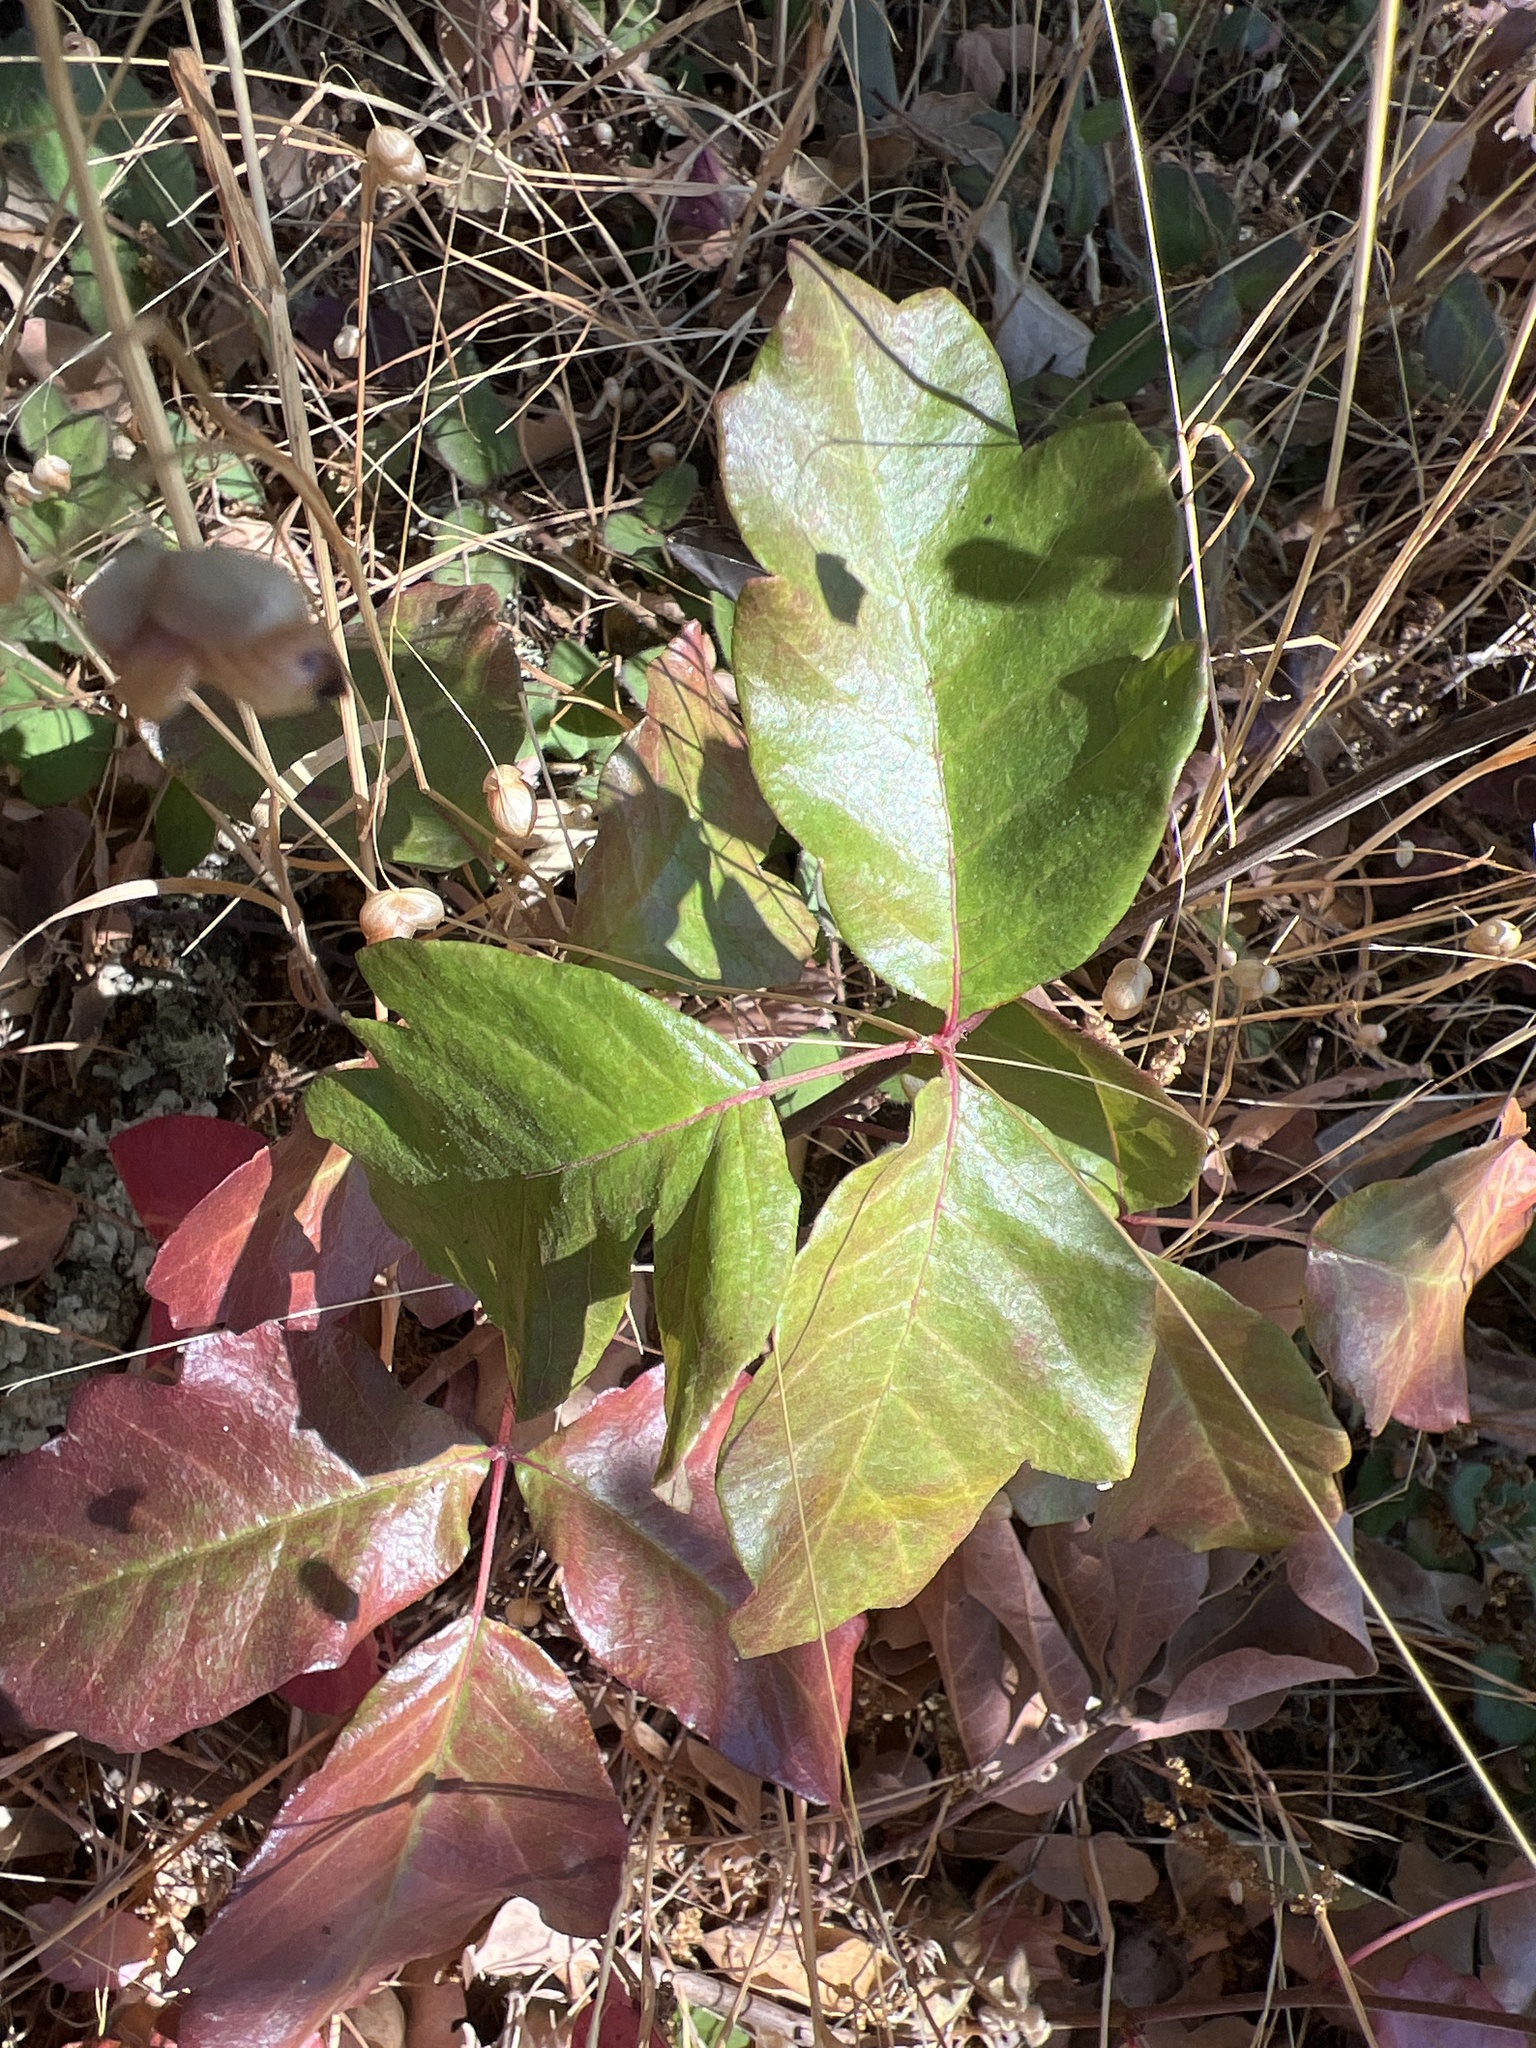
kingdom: Plantae
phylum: Tracheophyta
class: Magnoliopsida
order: Sapindales
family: Anacardiaceae
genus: Toxicodendron
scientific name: Toxicodendron diversilobum
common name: Pacific poison-oak
